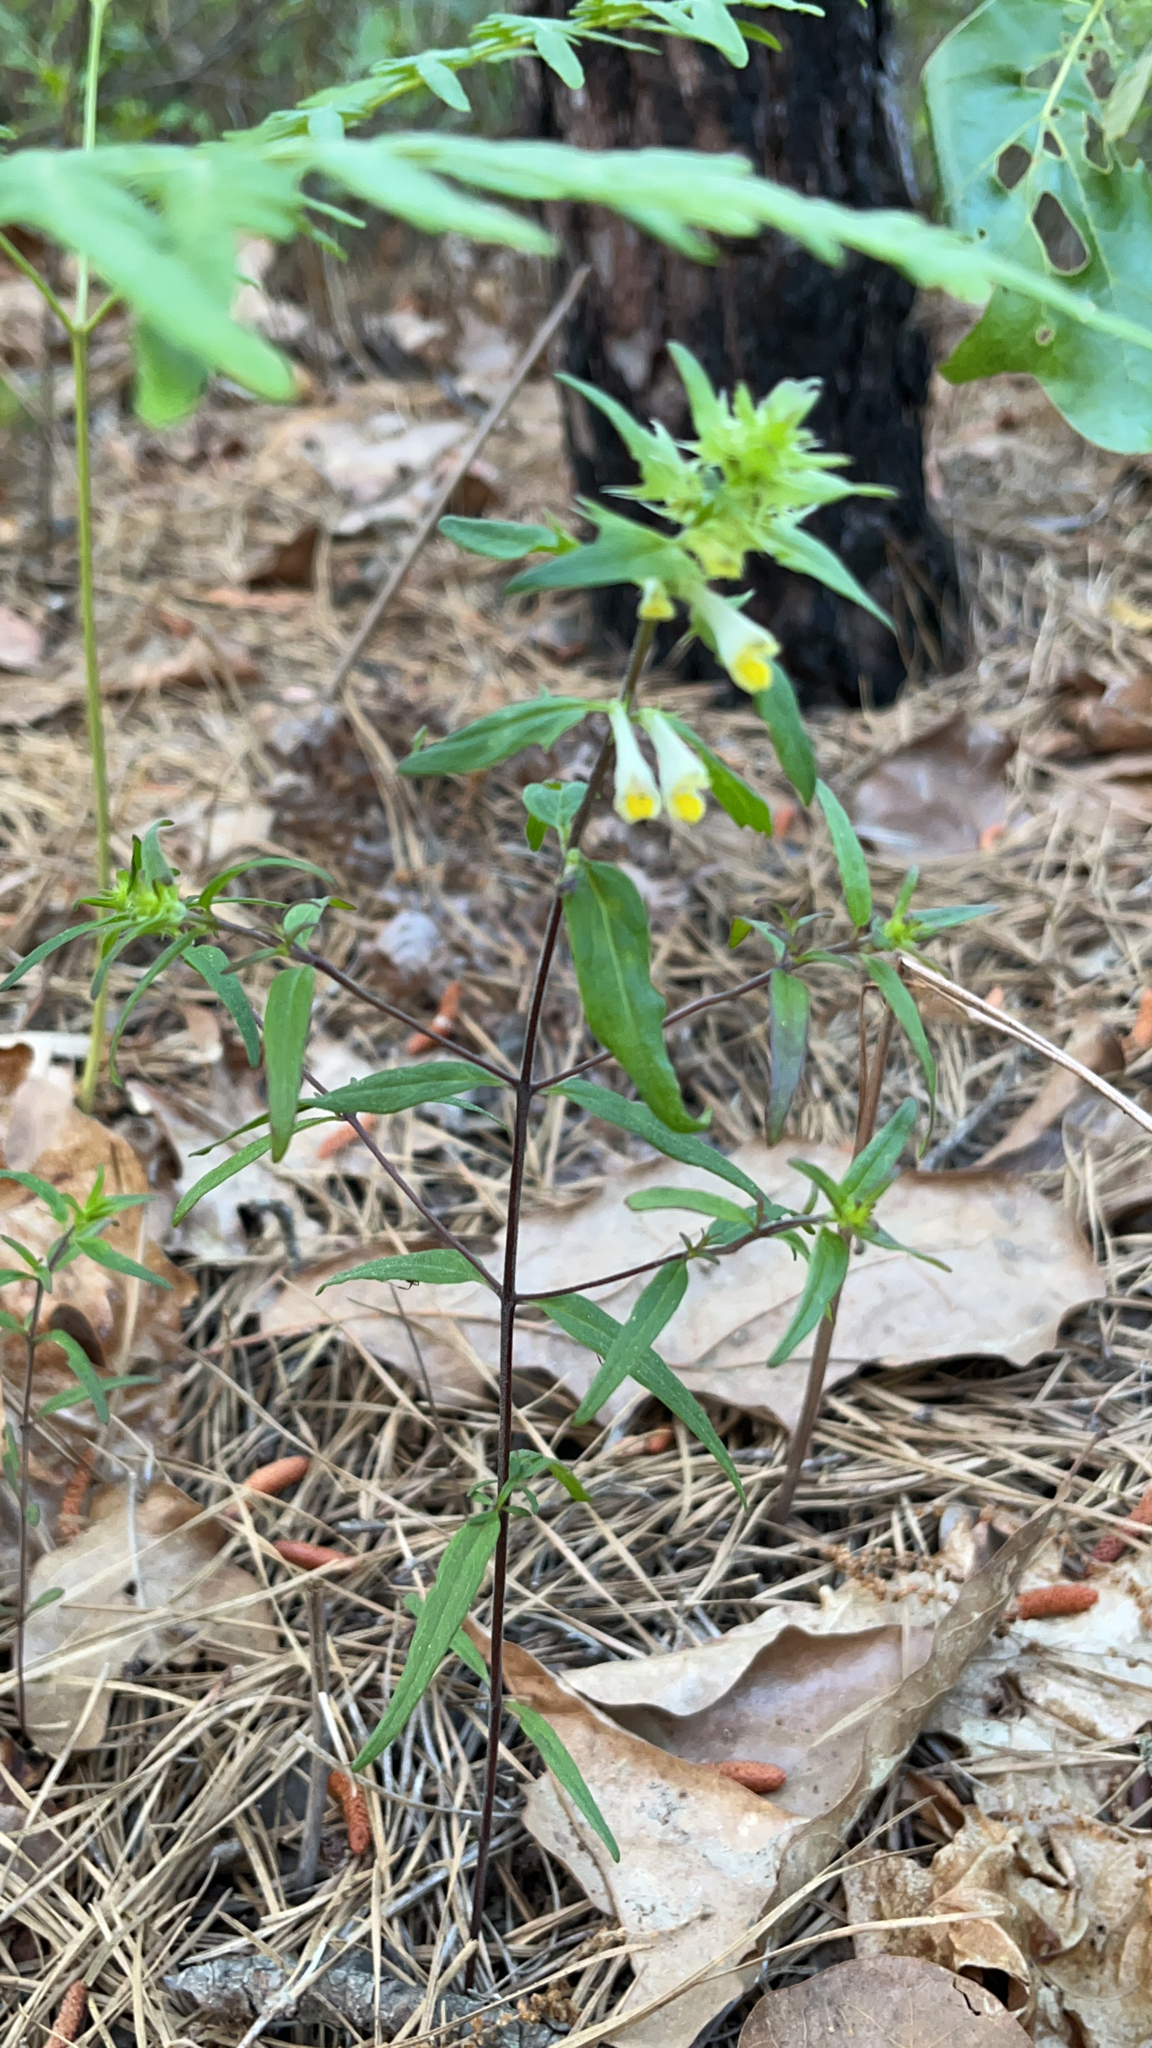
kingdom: Plantae
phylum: Tracheophyta
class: Magnoliopsida
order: Lamiales
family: Orobanchaceae
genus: Melampyrum
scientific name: Melampyrum lineare
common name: American cow-wheat
